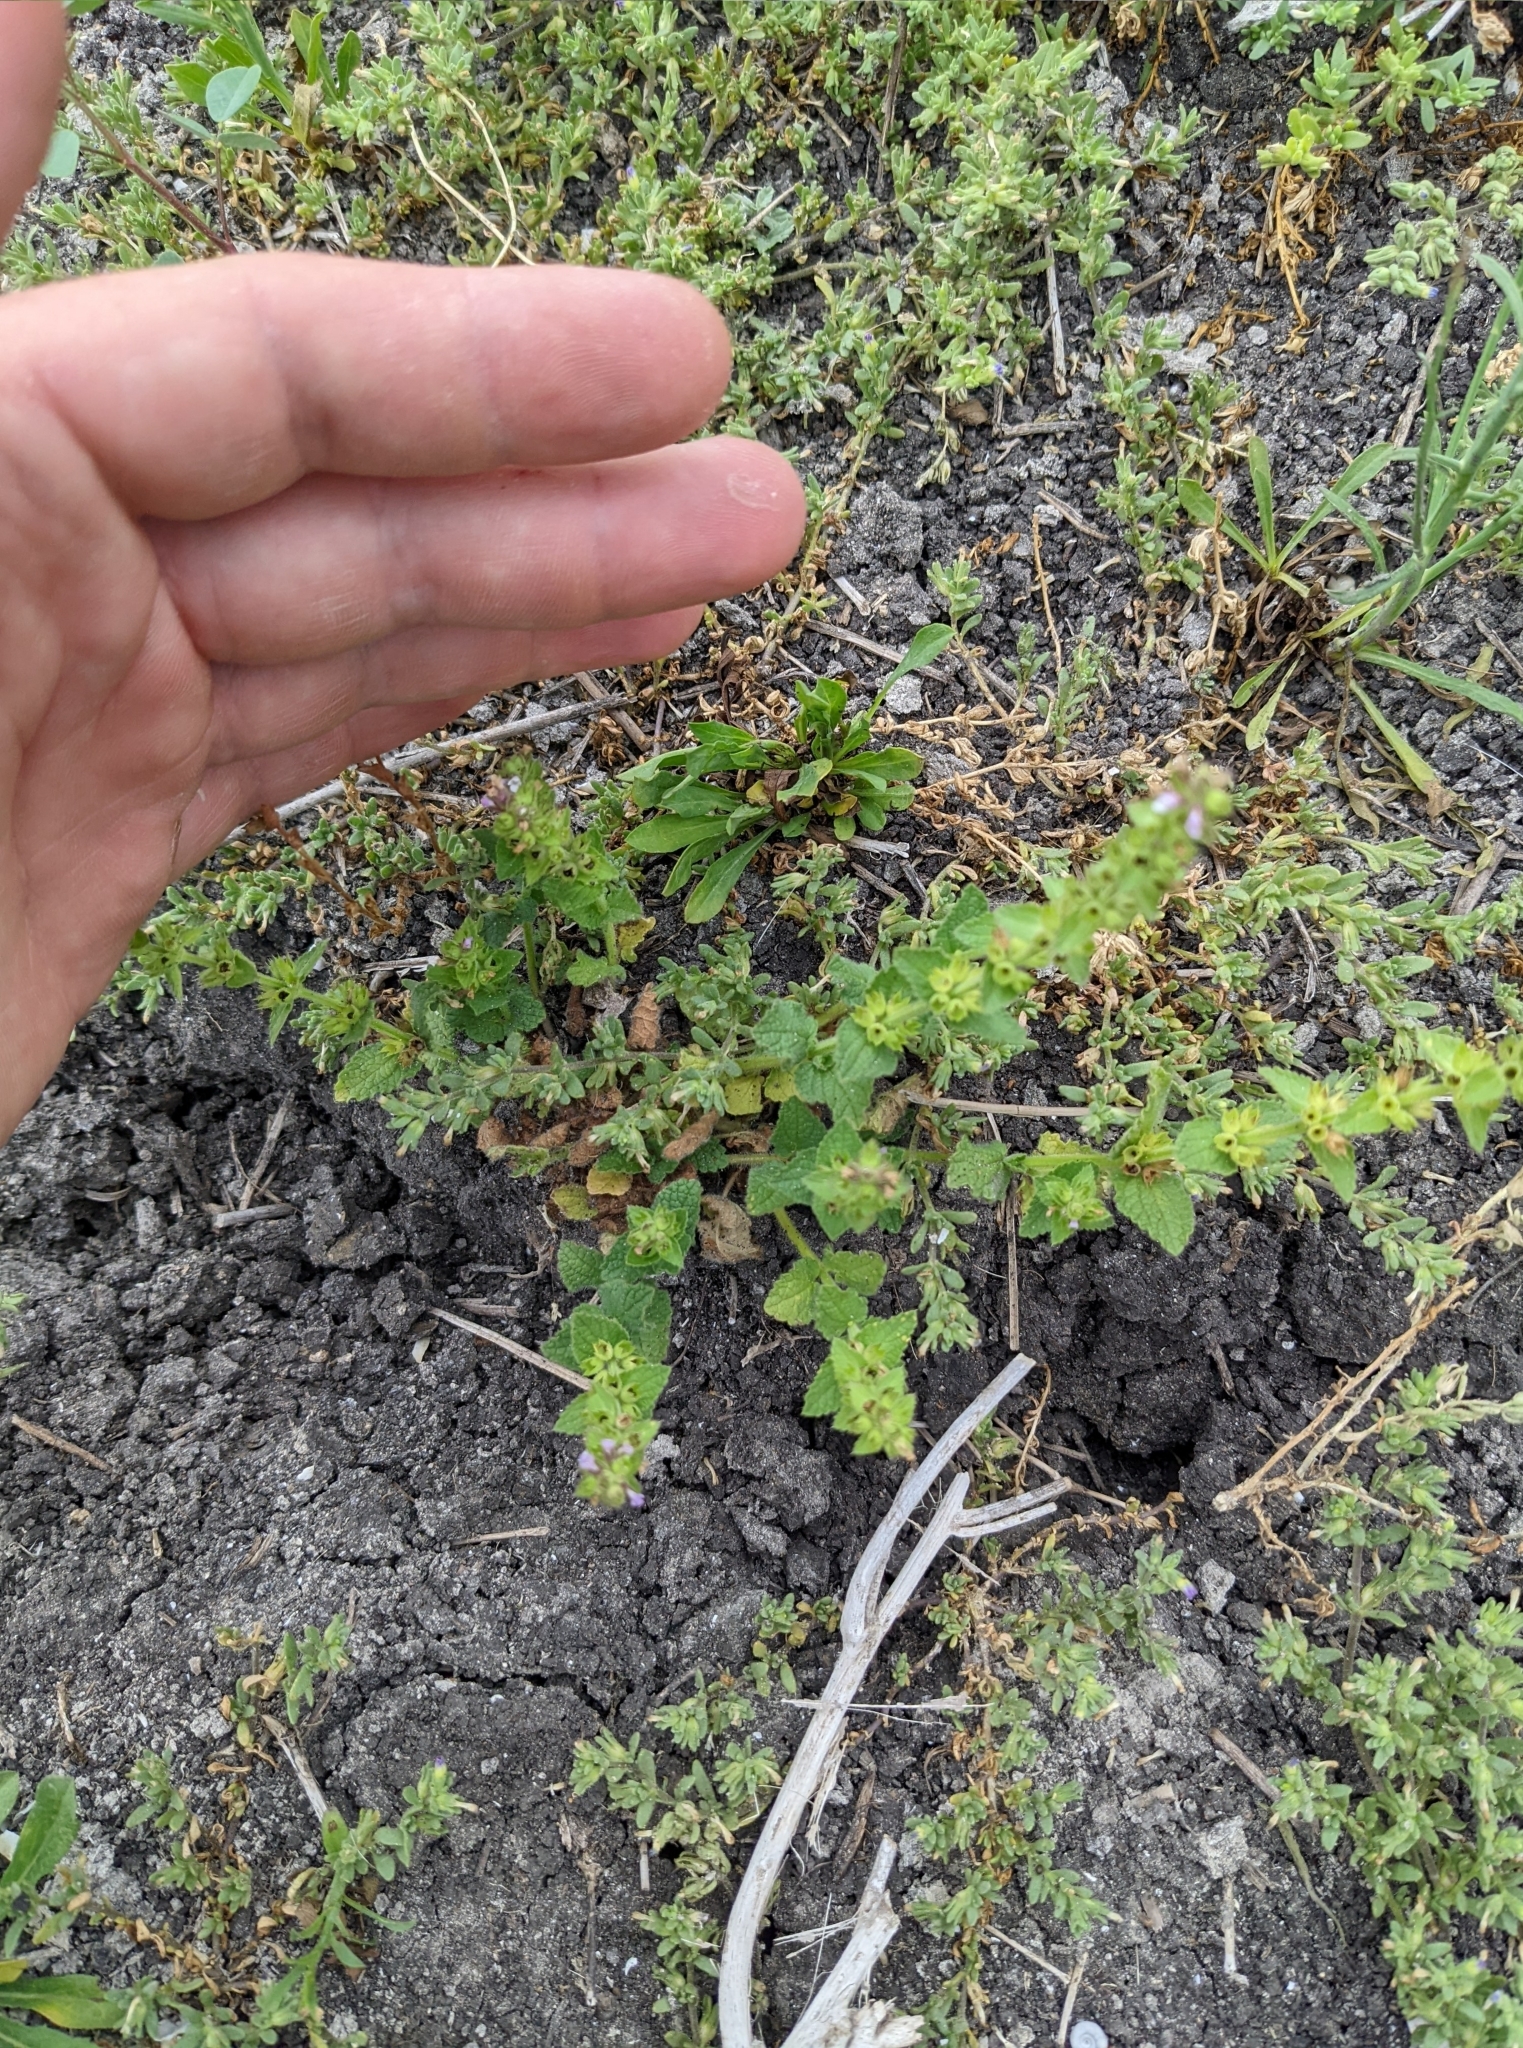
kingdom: Plantae
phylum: Tracheophyta
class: Magnoliopsida
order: Lamiales
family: Lamiaceae
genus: Stachys
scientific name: Stachys
